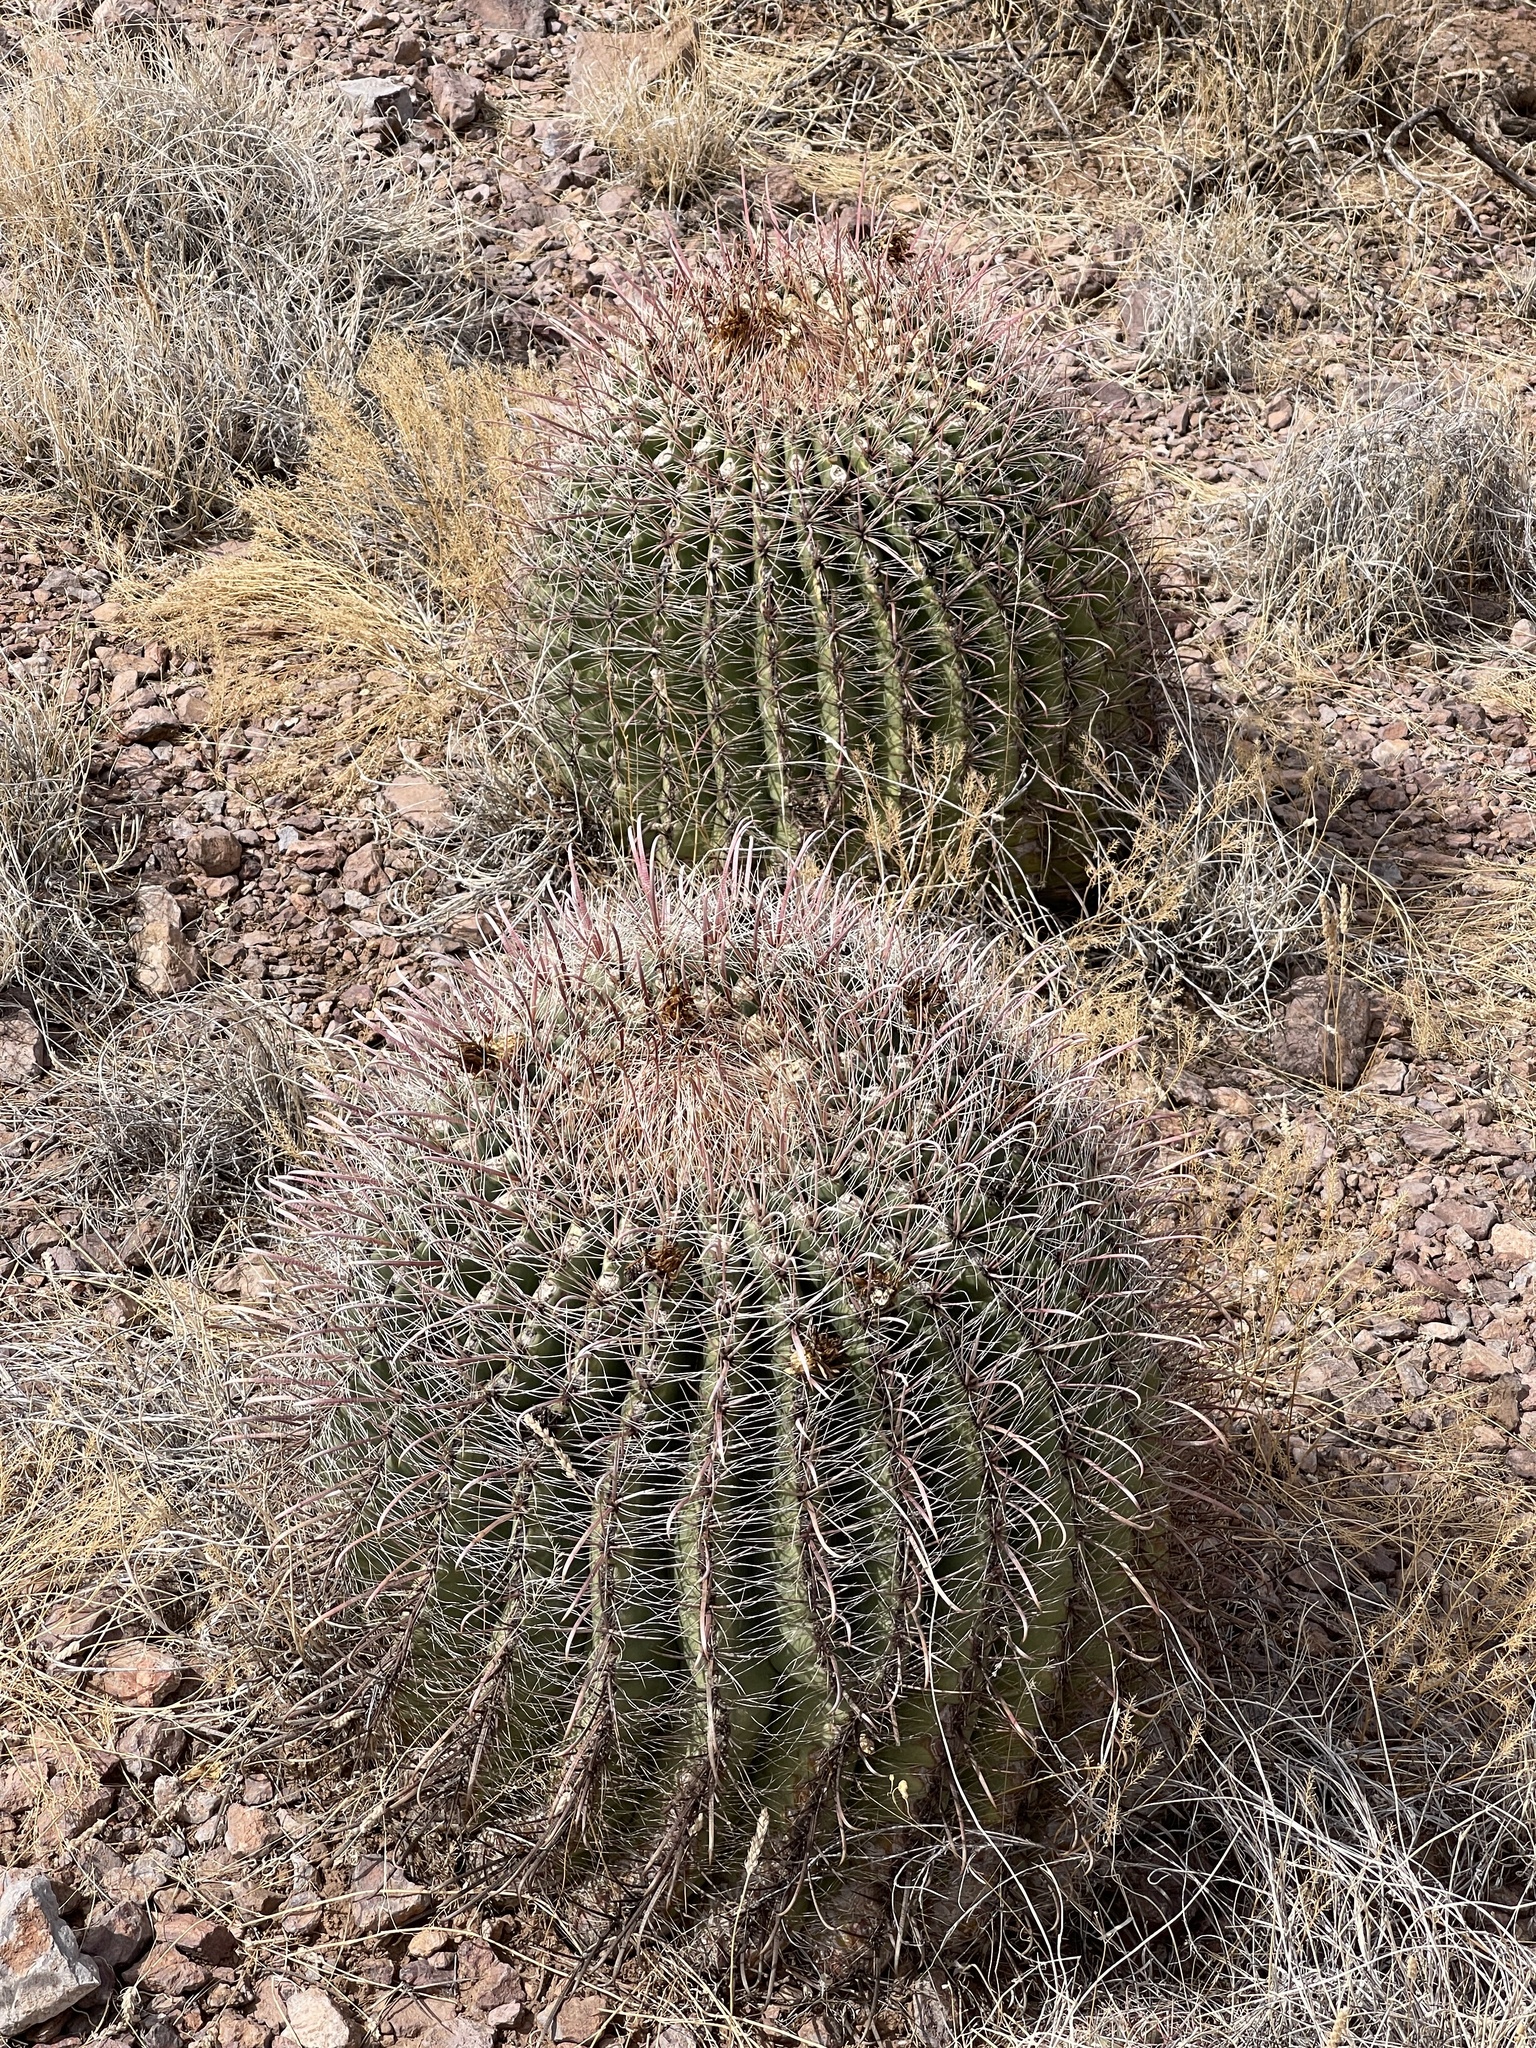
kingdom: Plantae
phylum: Tracheophyta
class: Magnoliopsida
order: Caryophyllales
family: Cactaceae
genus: Ferocactus
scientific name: Ferocactus wislizeni
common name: Candy barrel cactus
